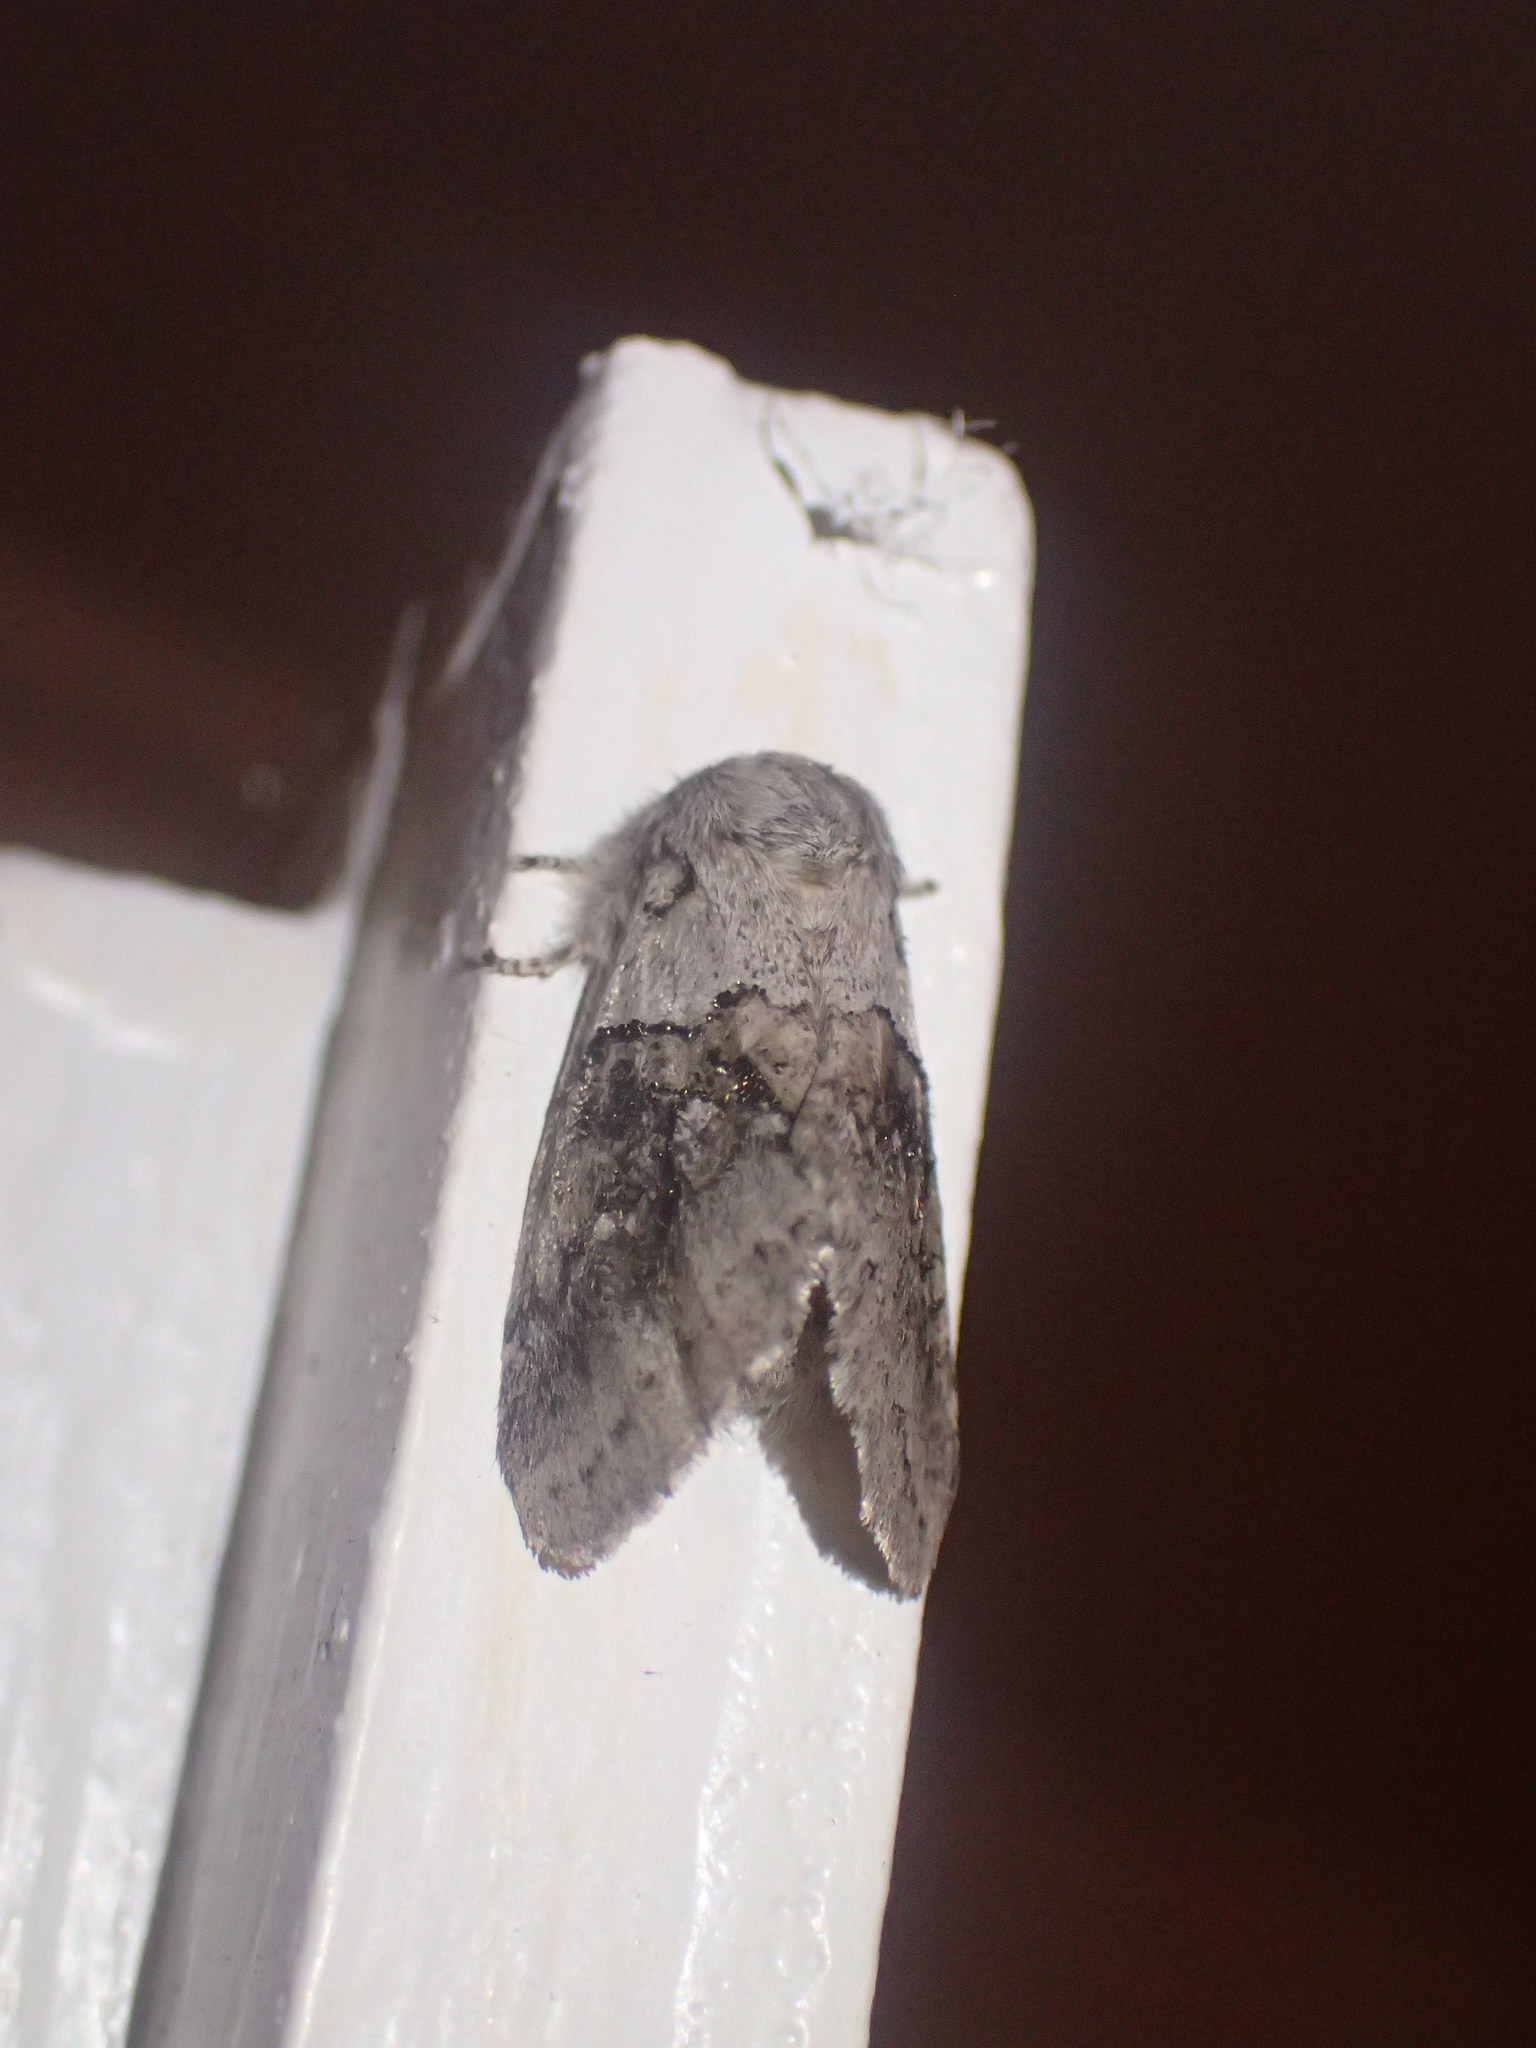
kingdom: Animalia
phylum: Arthropoda
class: Insecta
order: Lepidoptera
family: Notodontidae
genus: Gluphisia
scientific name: Gluphisia septentrionis
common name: Common gluphisia
